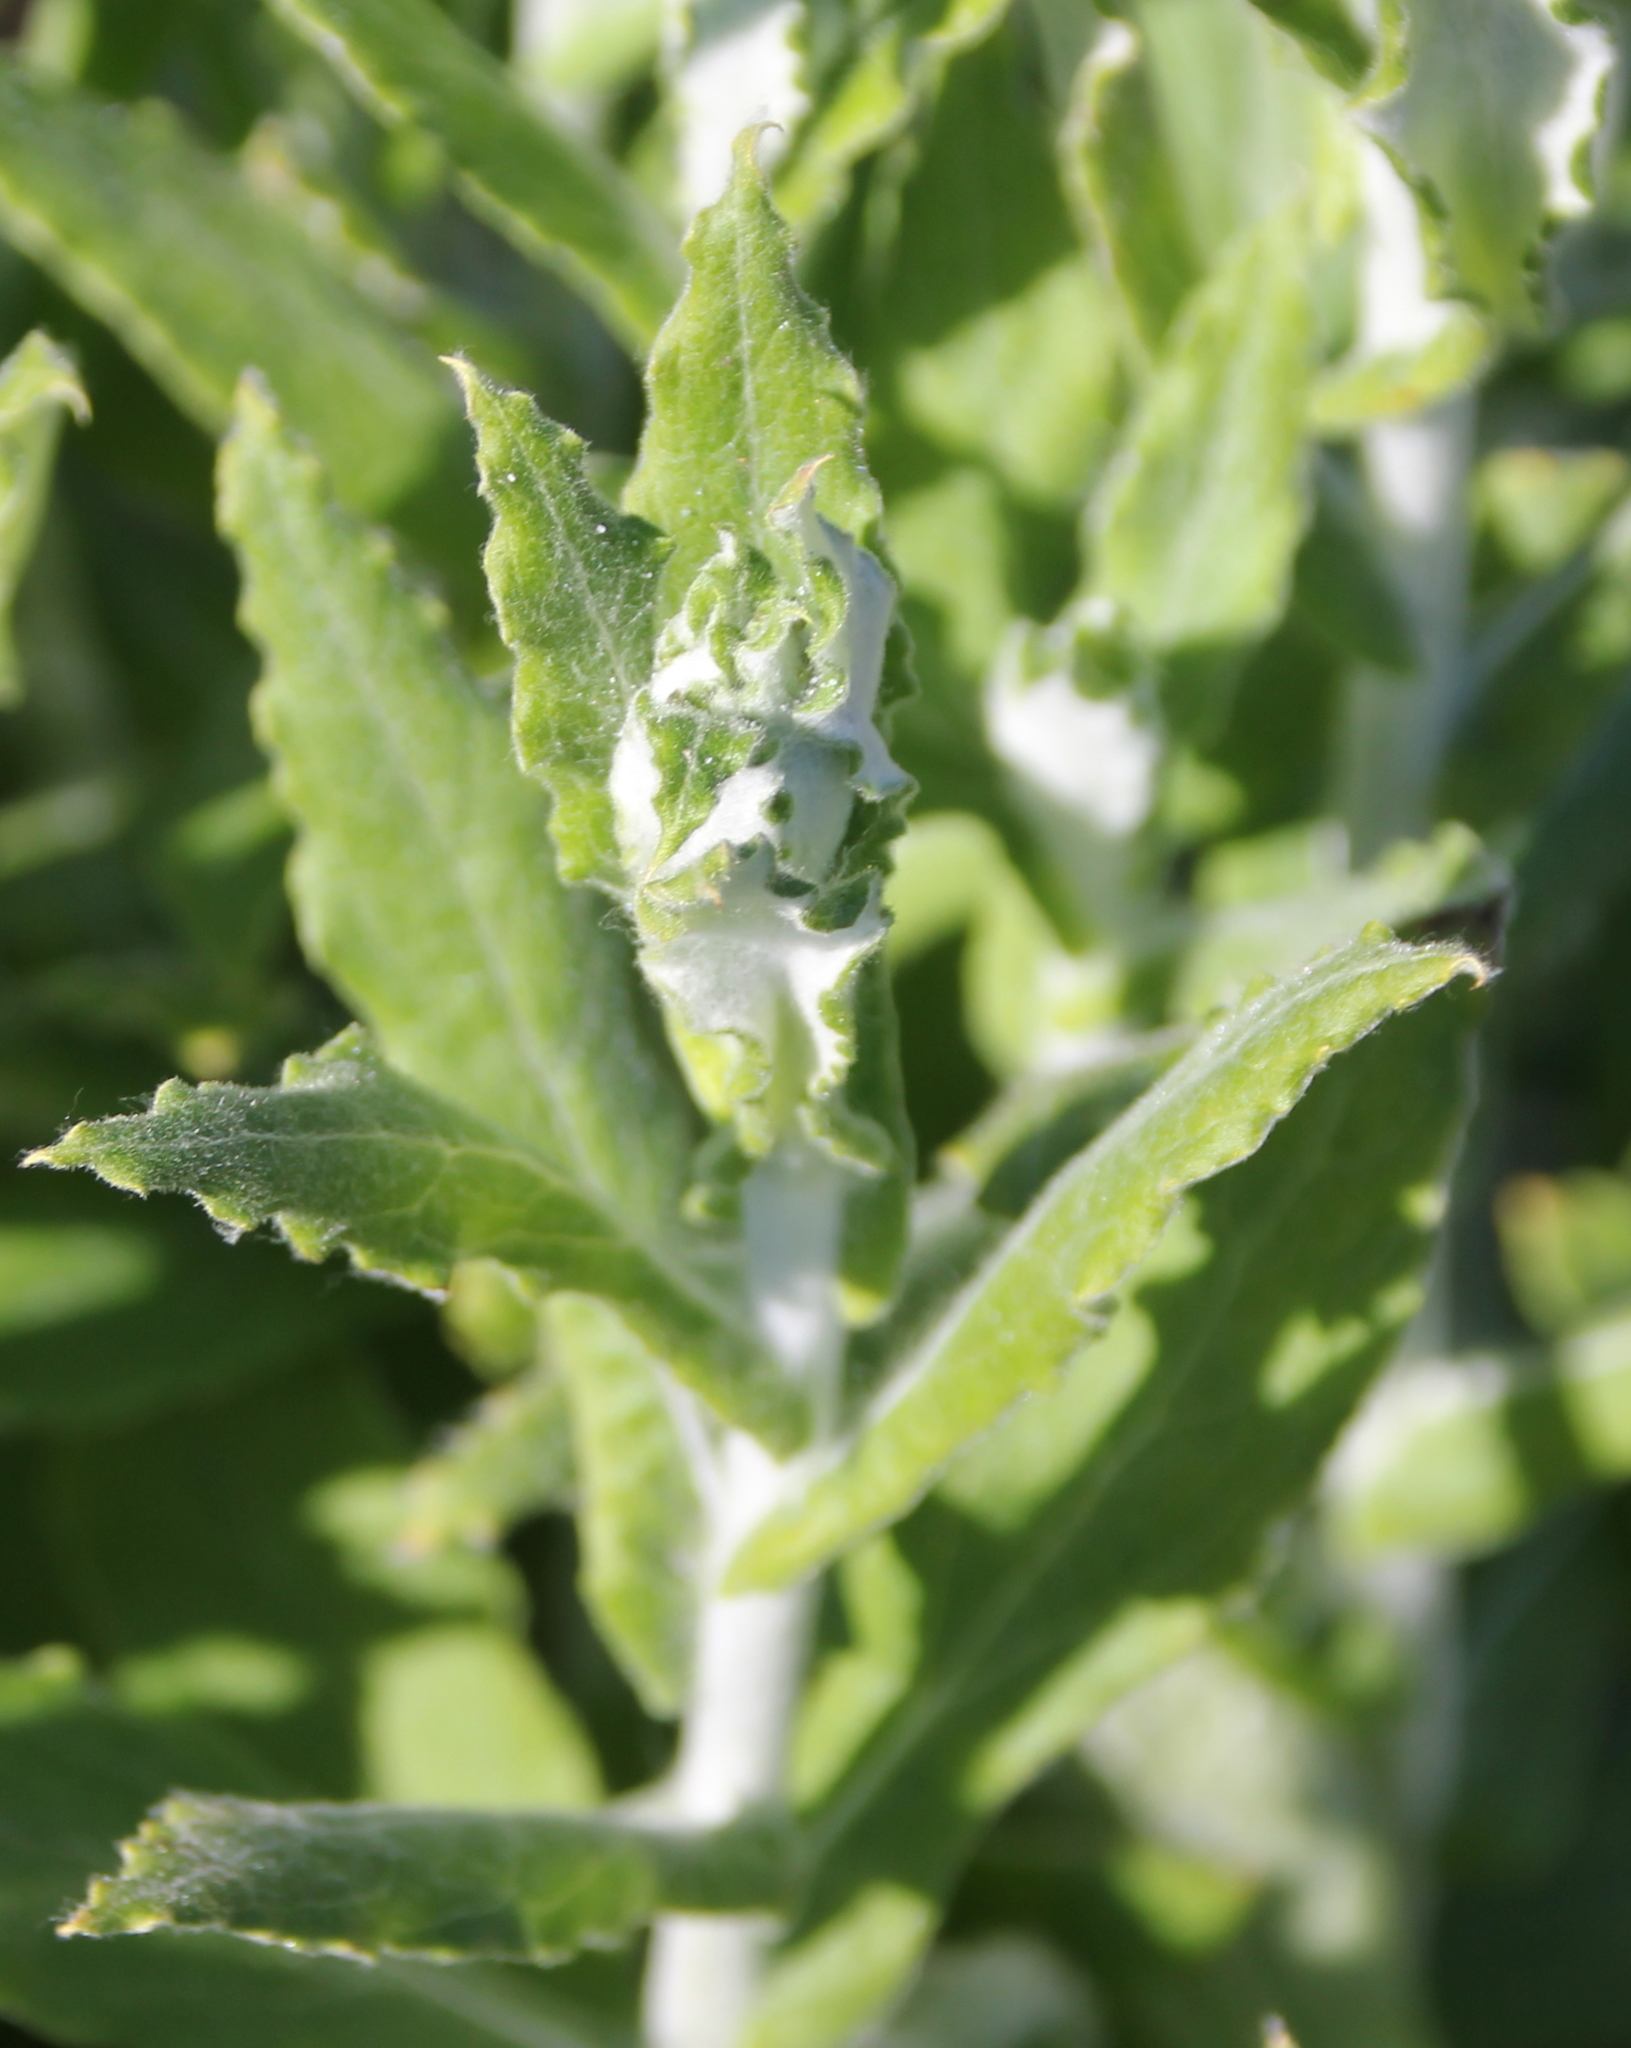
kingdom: Plantae
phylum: Tracheophyta
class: Magnoliopsida
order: Asterales
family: Asteraceae
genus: Pseudognaphalium
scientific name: Pseudognaphalium biolettii
